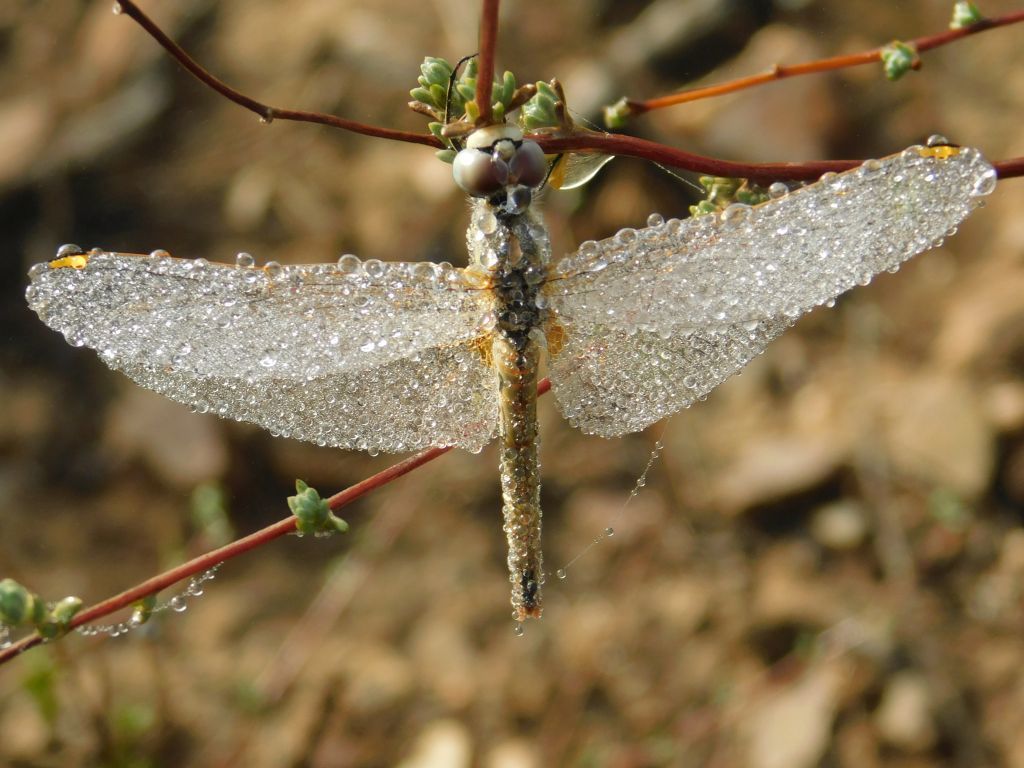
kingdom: Animalia
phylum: Arthropoda
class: Insecta
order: Odonata
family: Libellulidae
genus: Sympetrum
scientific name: Sympetrum fonscolombii
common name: Red-veined darter
